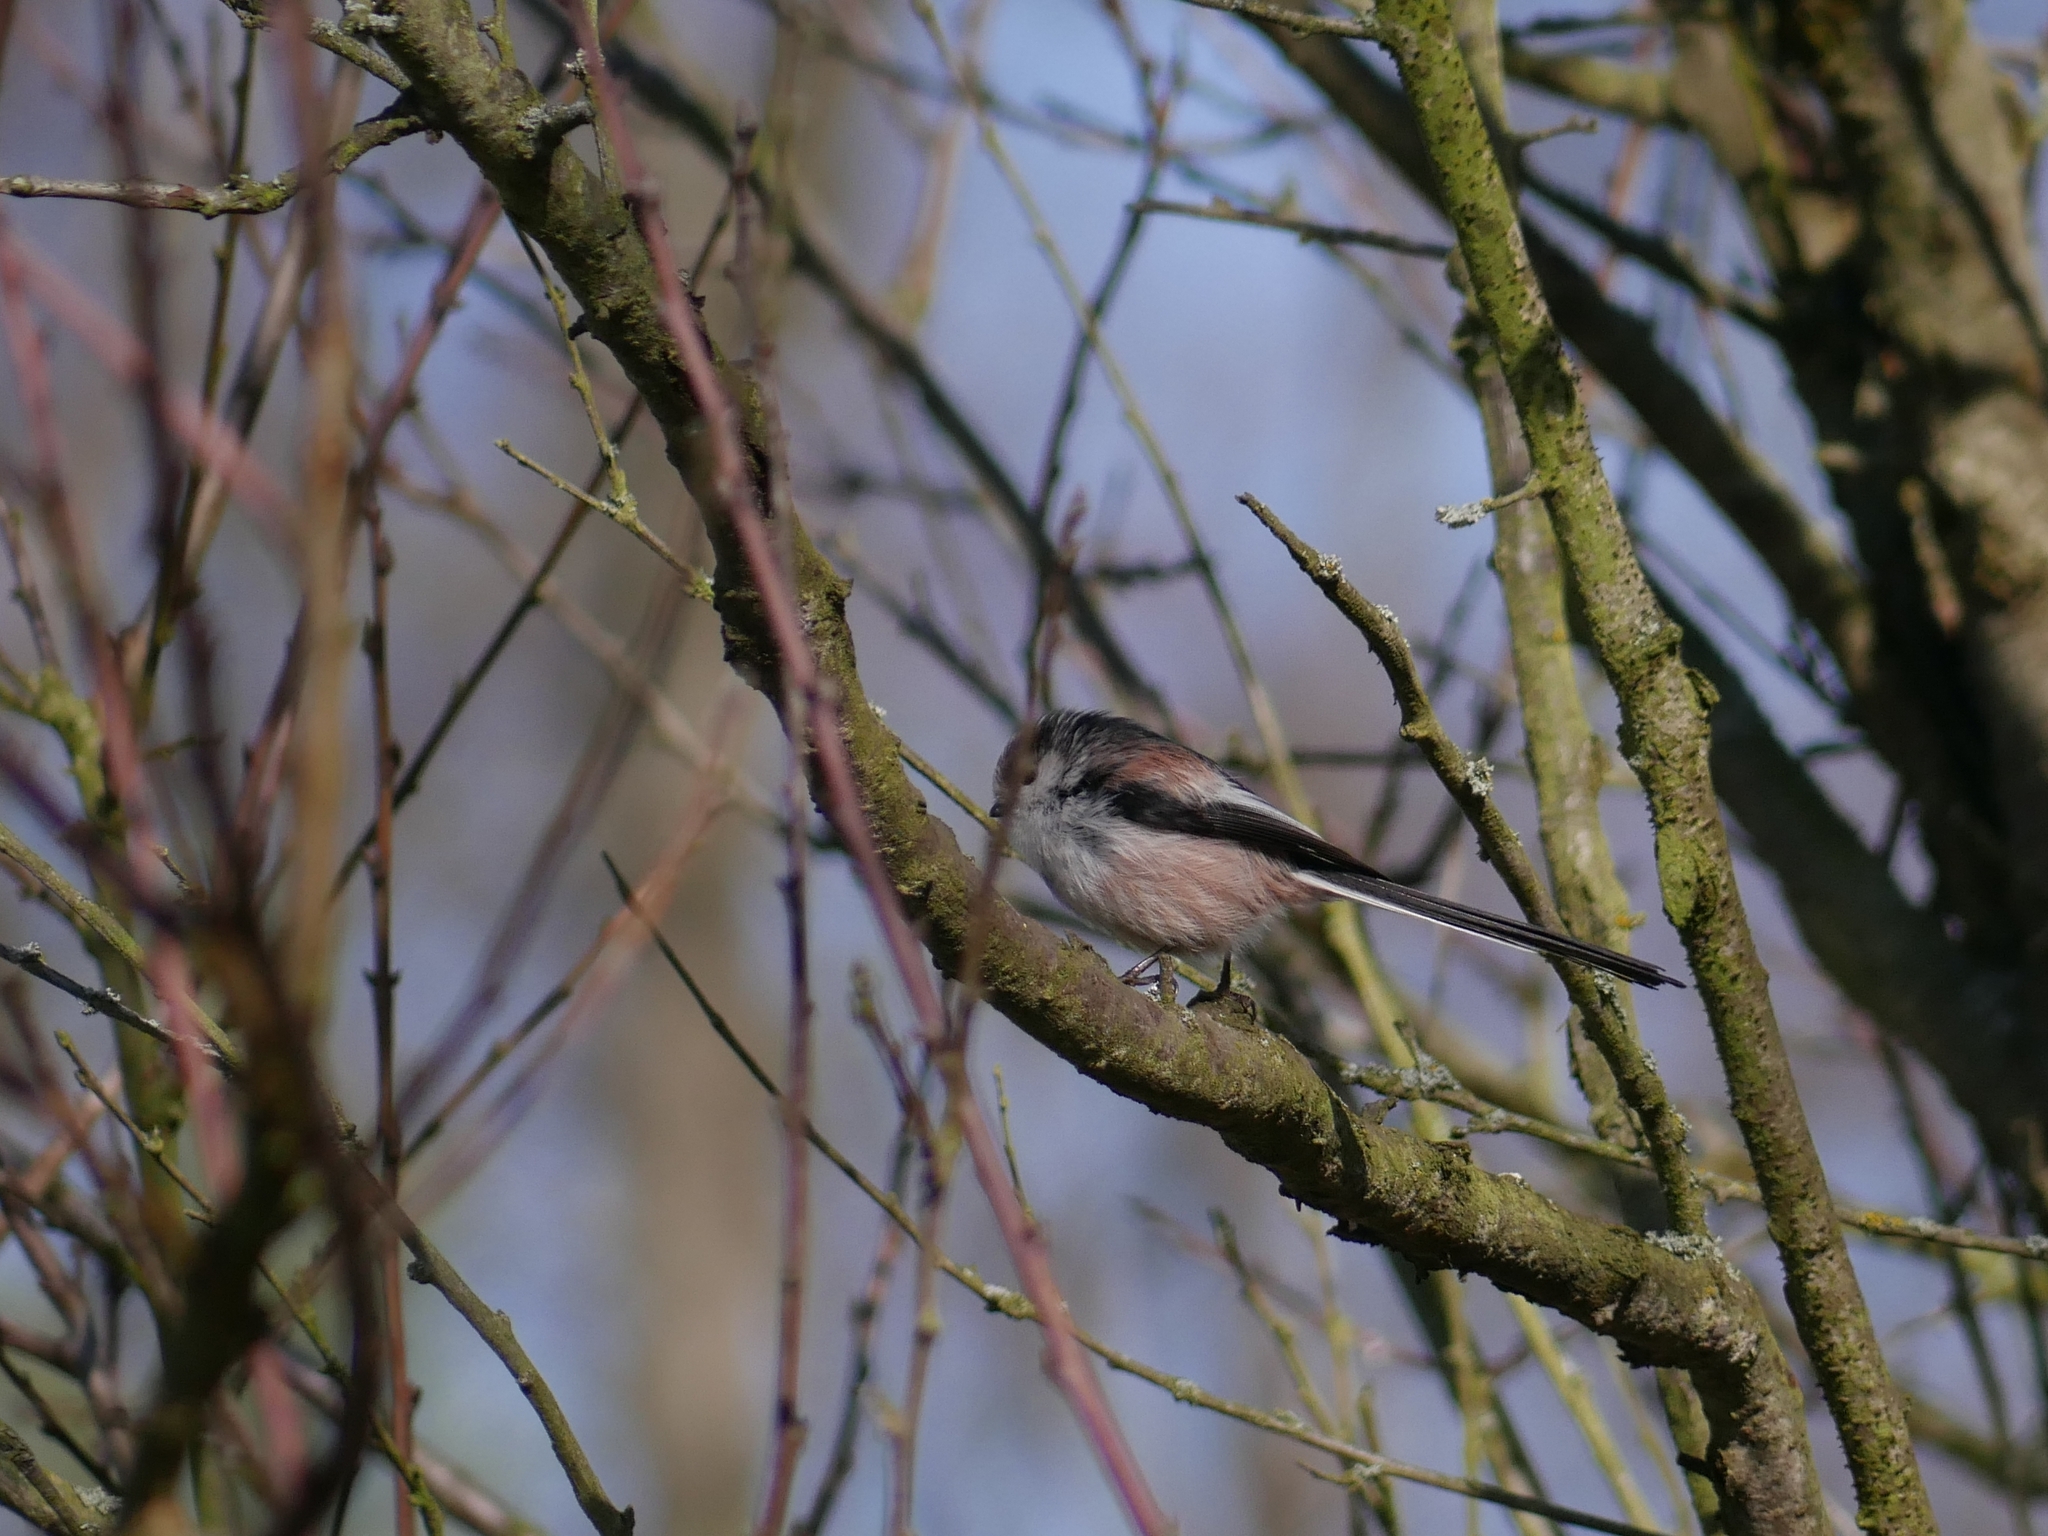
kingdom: Animalia
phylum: Chordata
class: Aves
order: Passeriformes
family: Aegithalidae
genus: Aegithalos
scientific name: Aegithalos caudatus
